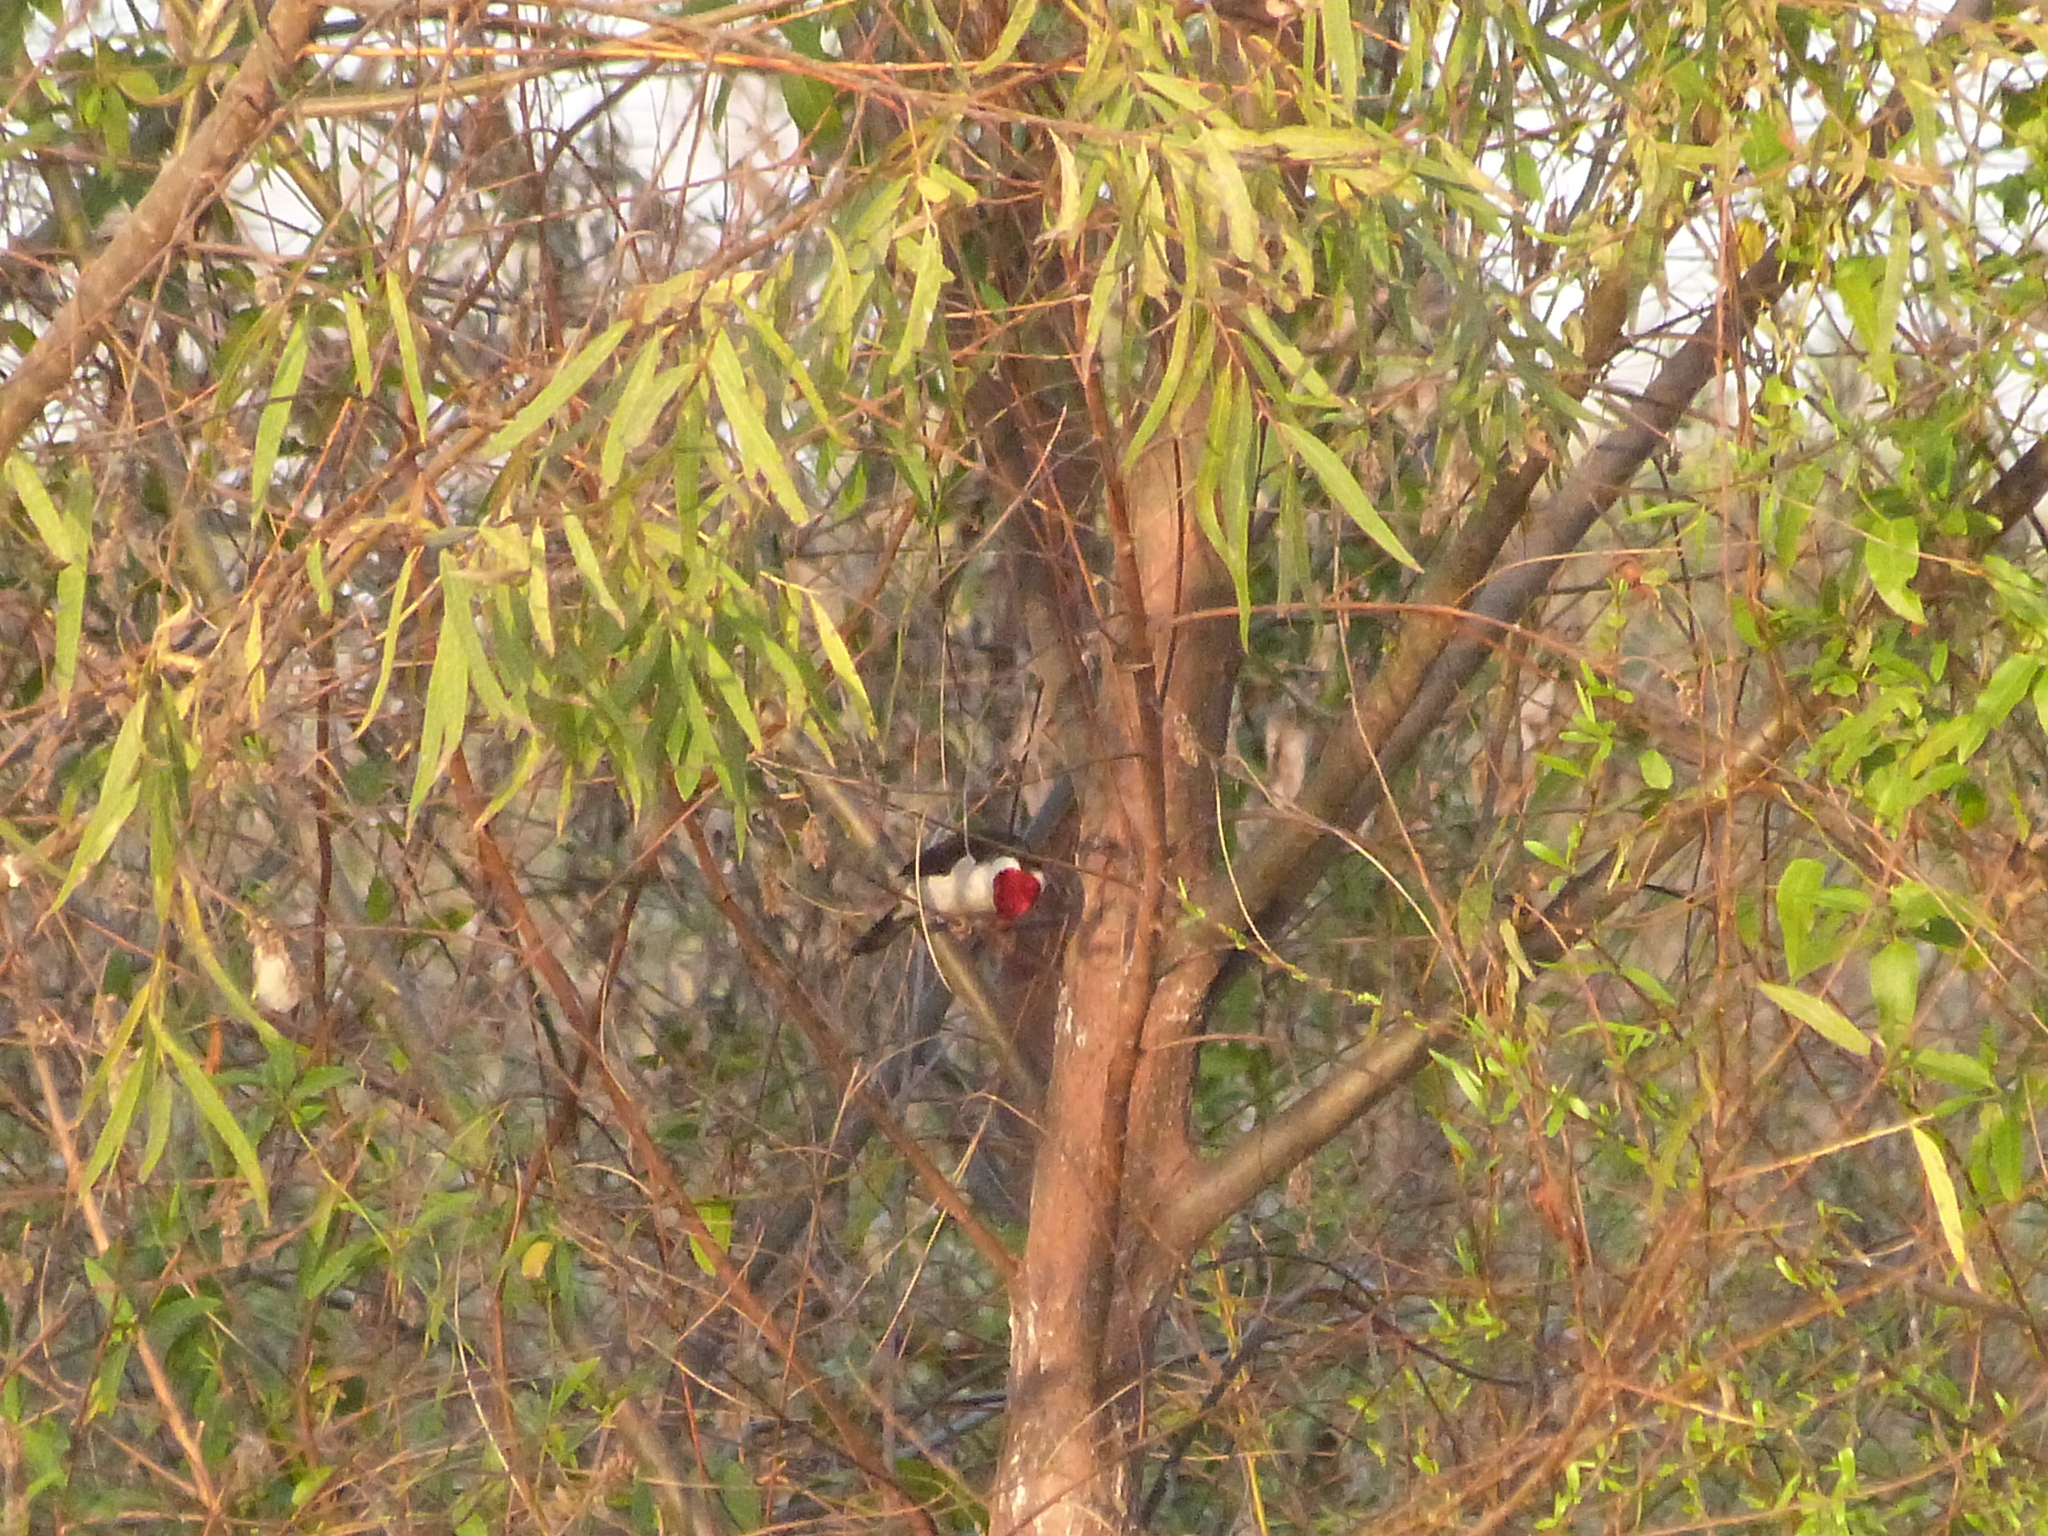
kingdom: Animalia
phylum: Chordata
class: Aves
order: Passeriformes
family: Thraupidae
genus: Paroaria
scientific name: Paroaria capitata
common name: Yellow-billed cardinal
